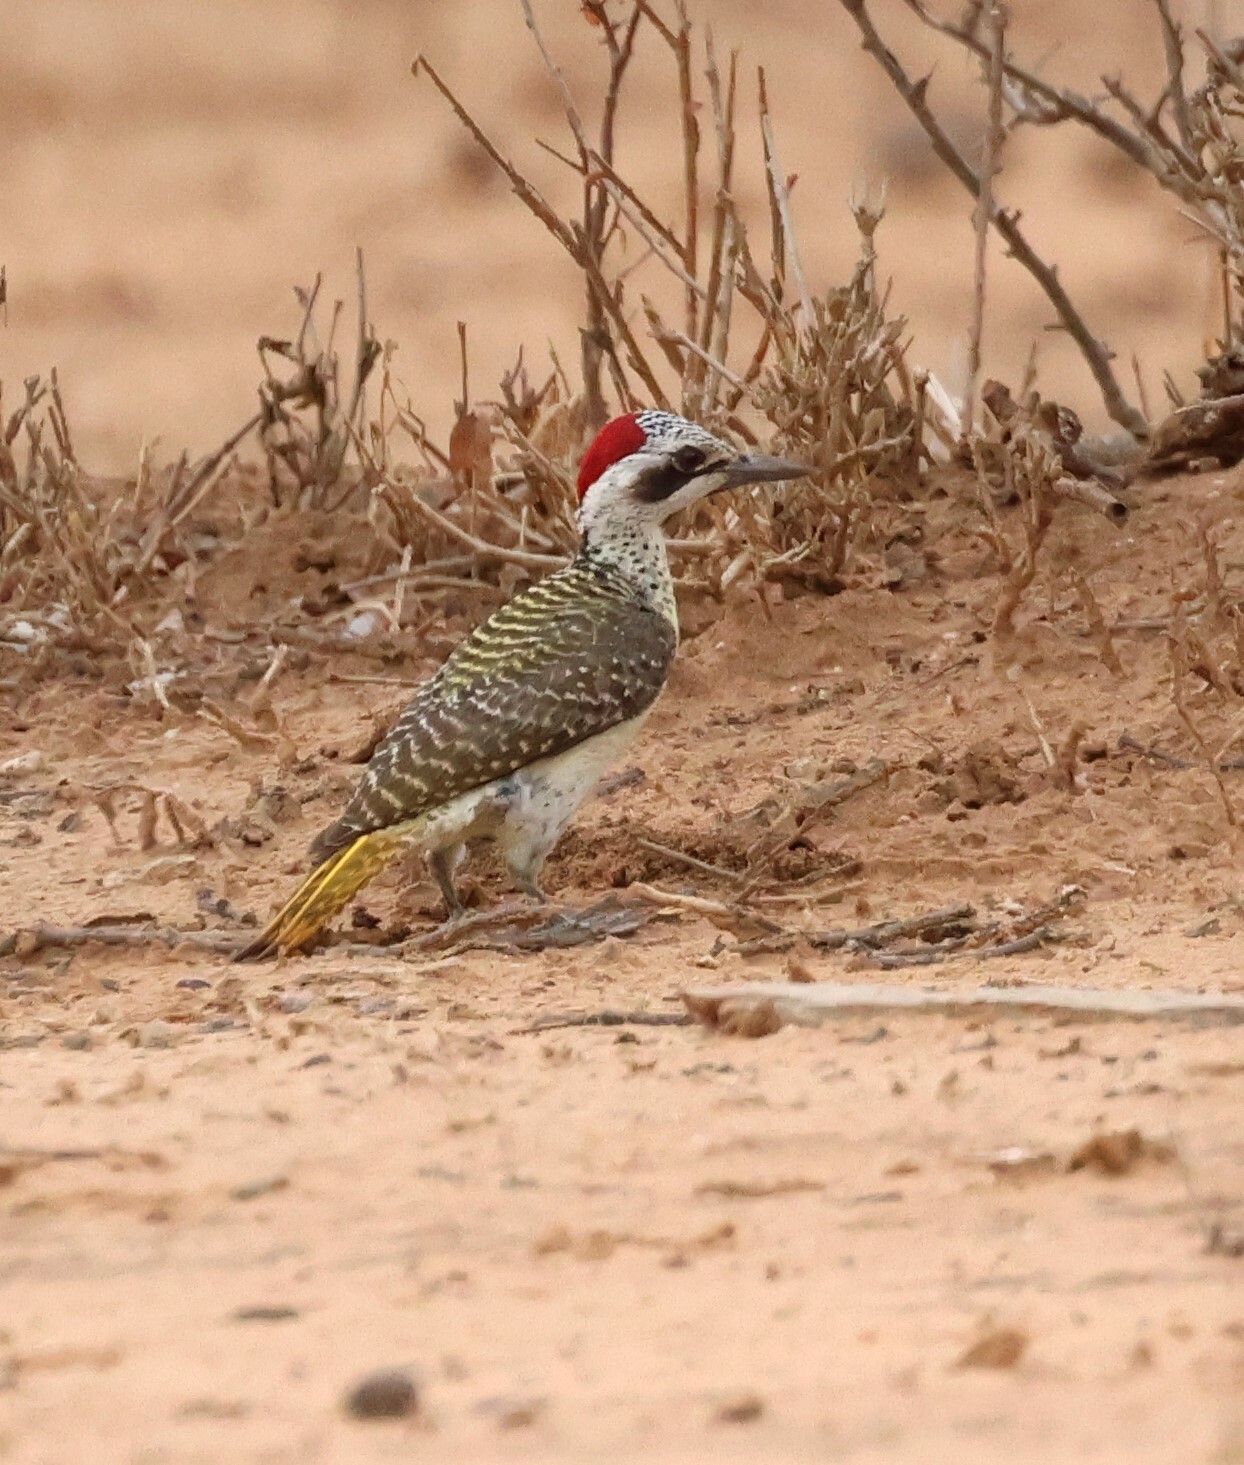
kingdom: Animalia
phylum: Chordata
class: Aves
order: Piciformes
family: Picidae
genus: Campethera
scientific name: Campethera bennettii
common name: Bennett's woodpecker
